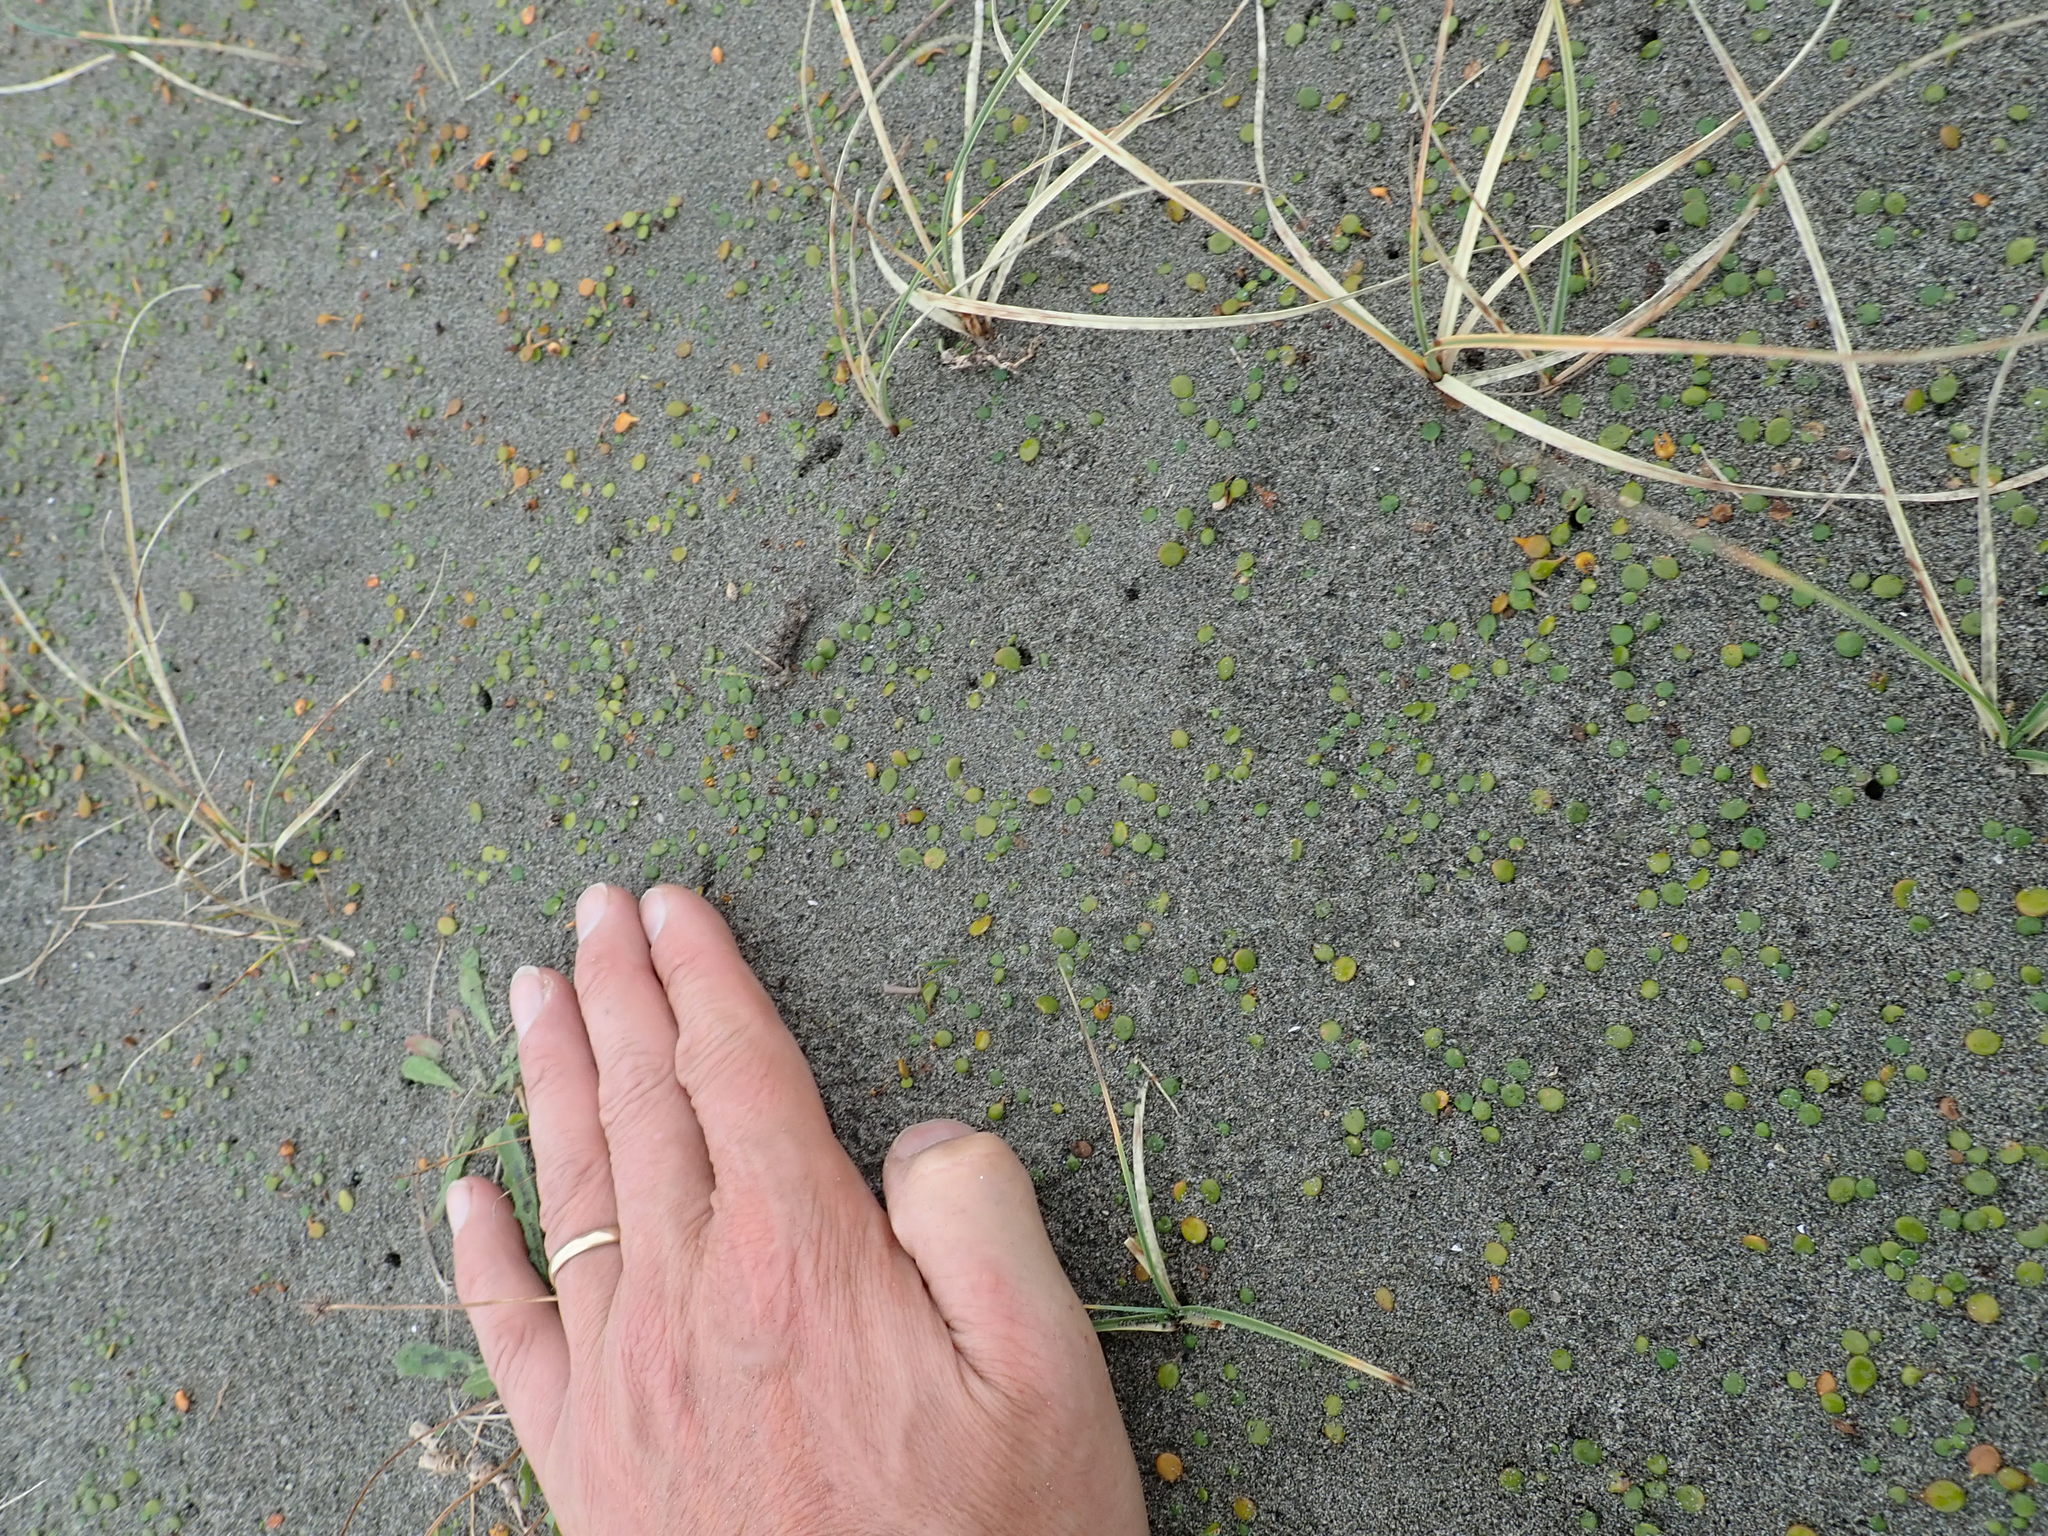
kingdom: Plantae
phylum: Tracheophyta
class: Magnoliopsida
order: Asterales
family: Goodeniaceae
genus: Goodenia
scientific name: Goodenia heenanii
